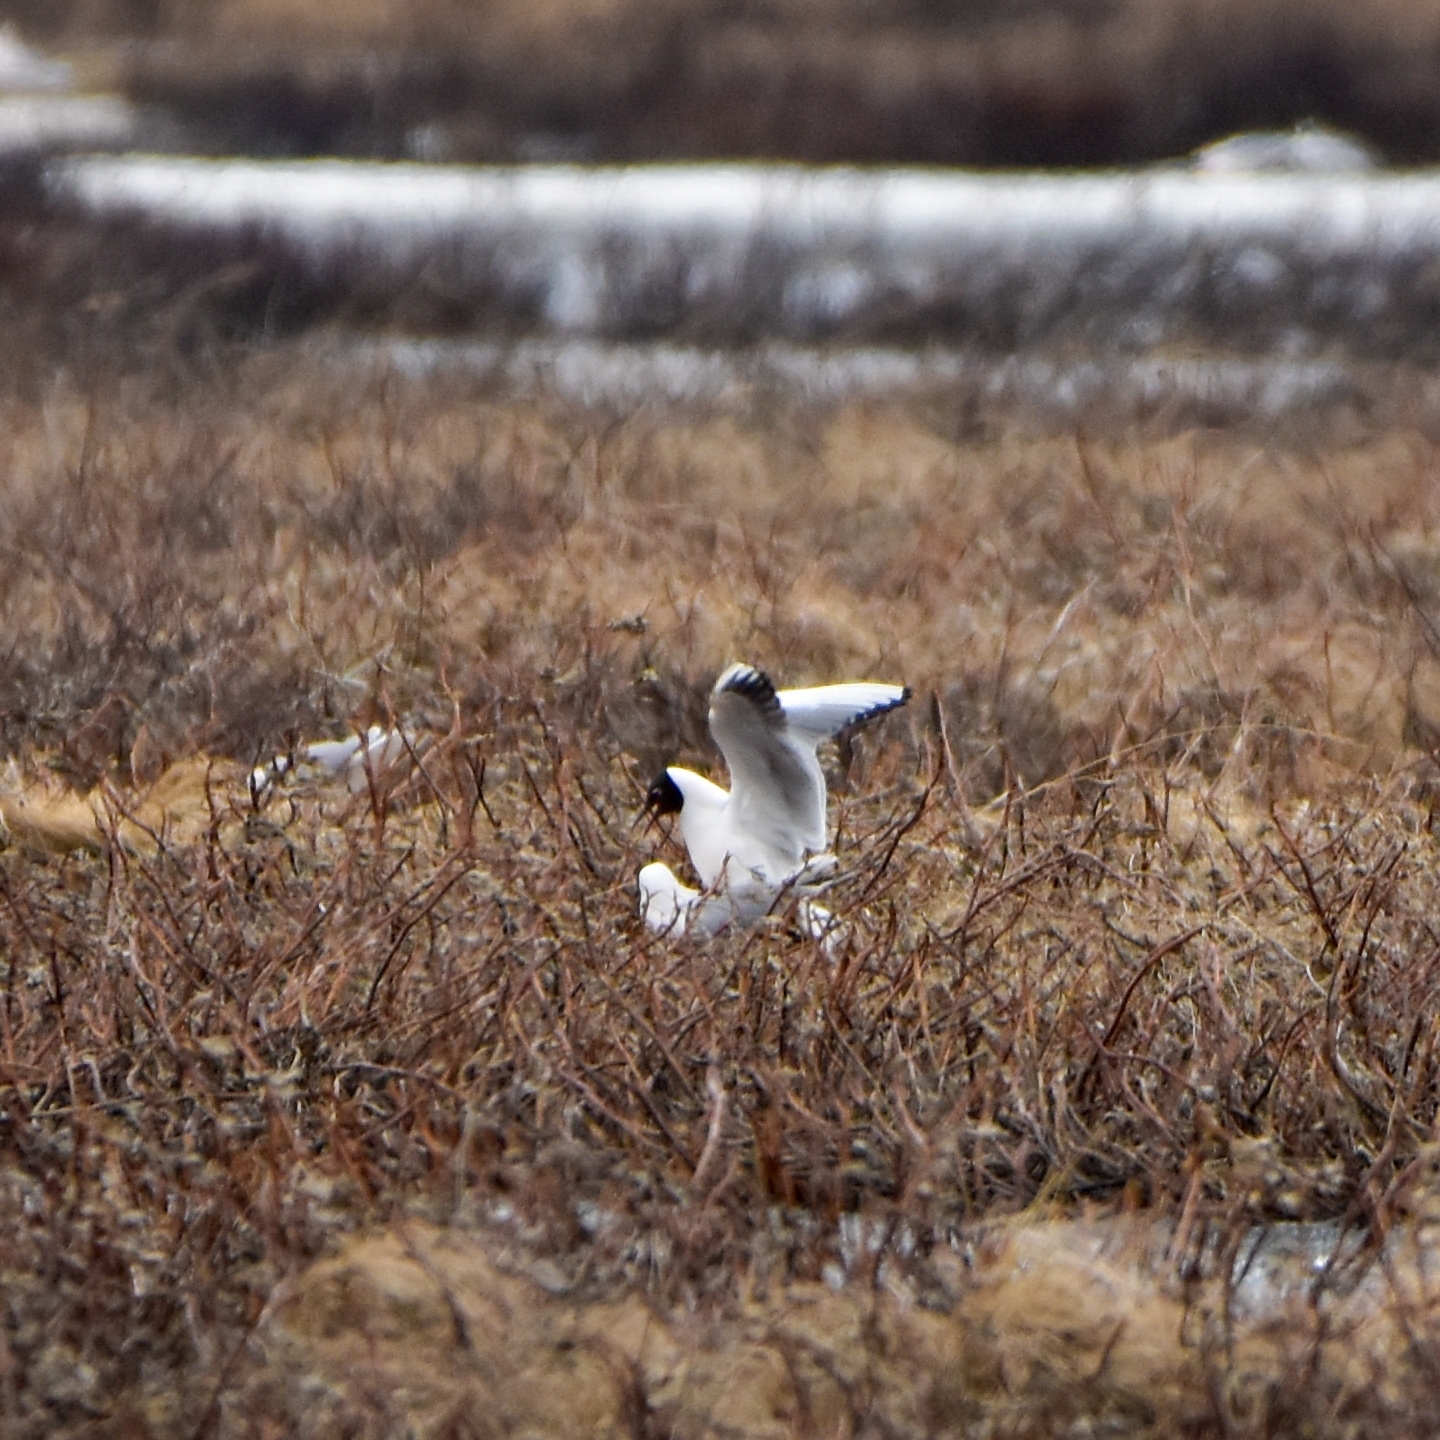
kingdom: Animalia
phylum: Chordata
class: Aves
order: Charadriiformes
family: Laridae
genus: Chroicocephalus
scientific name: Chroicocephalus ridibundus
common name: Black-headed gull
